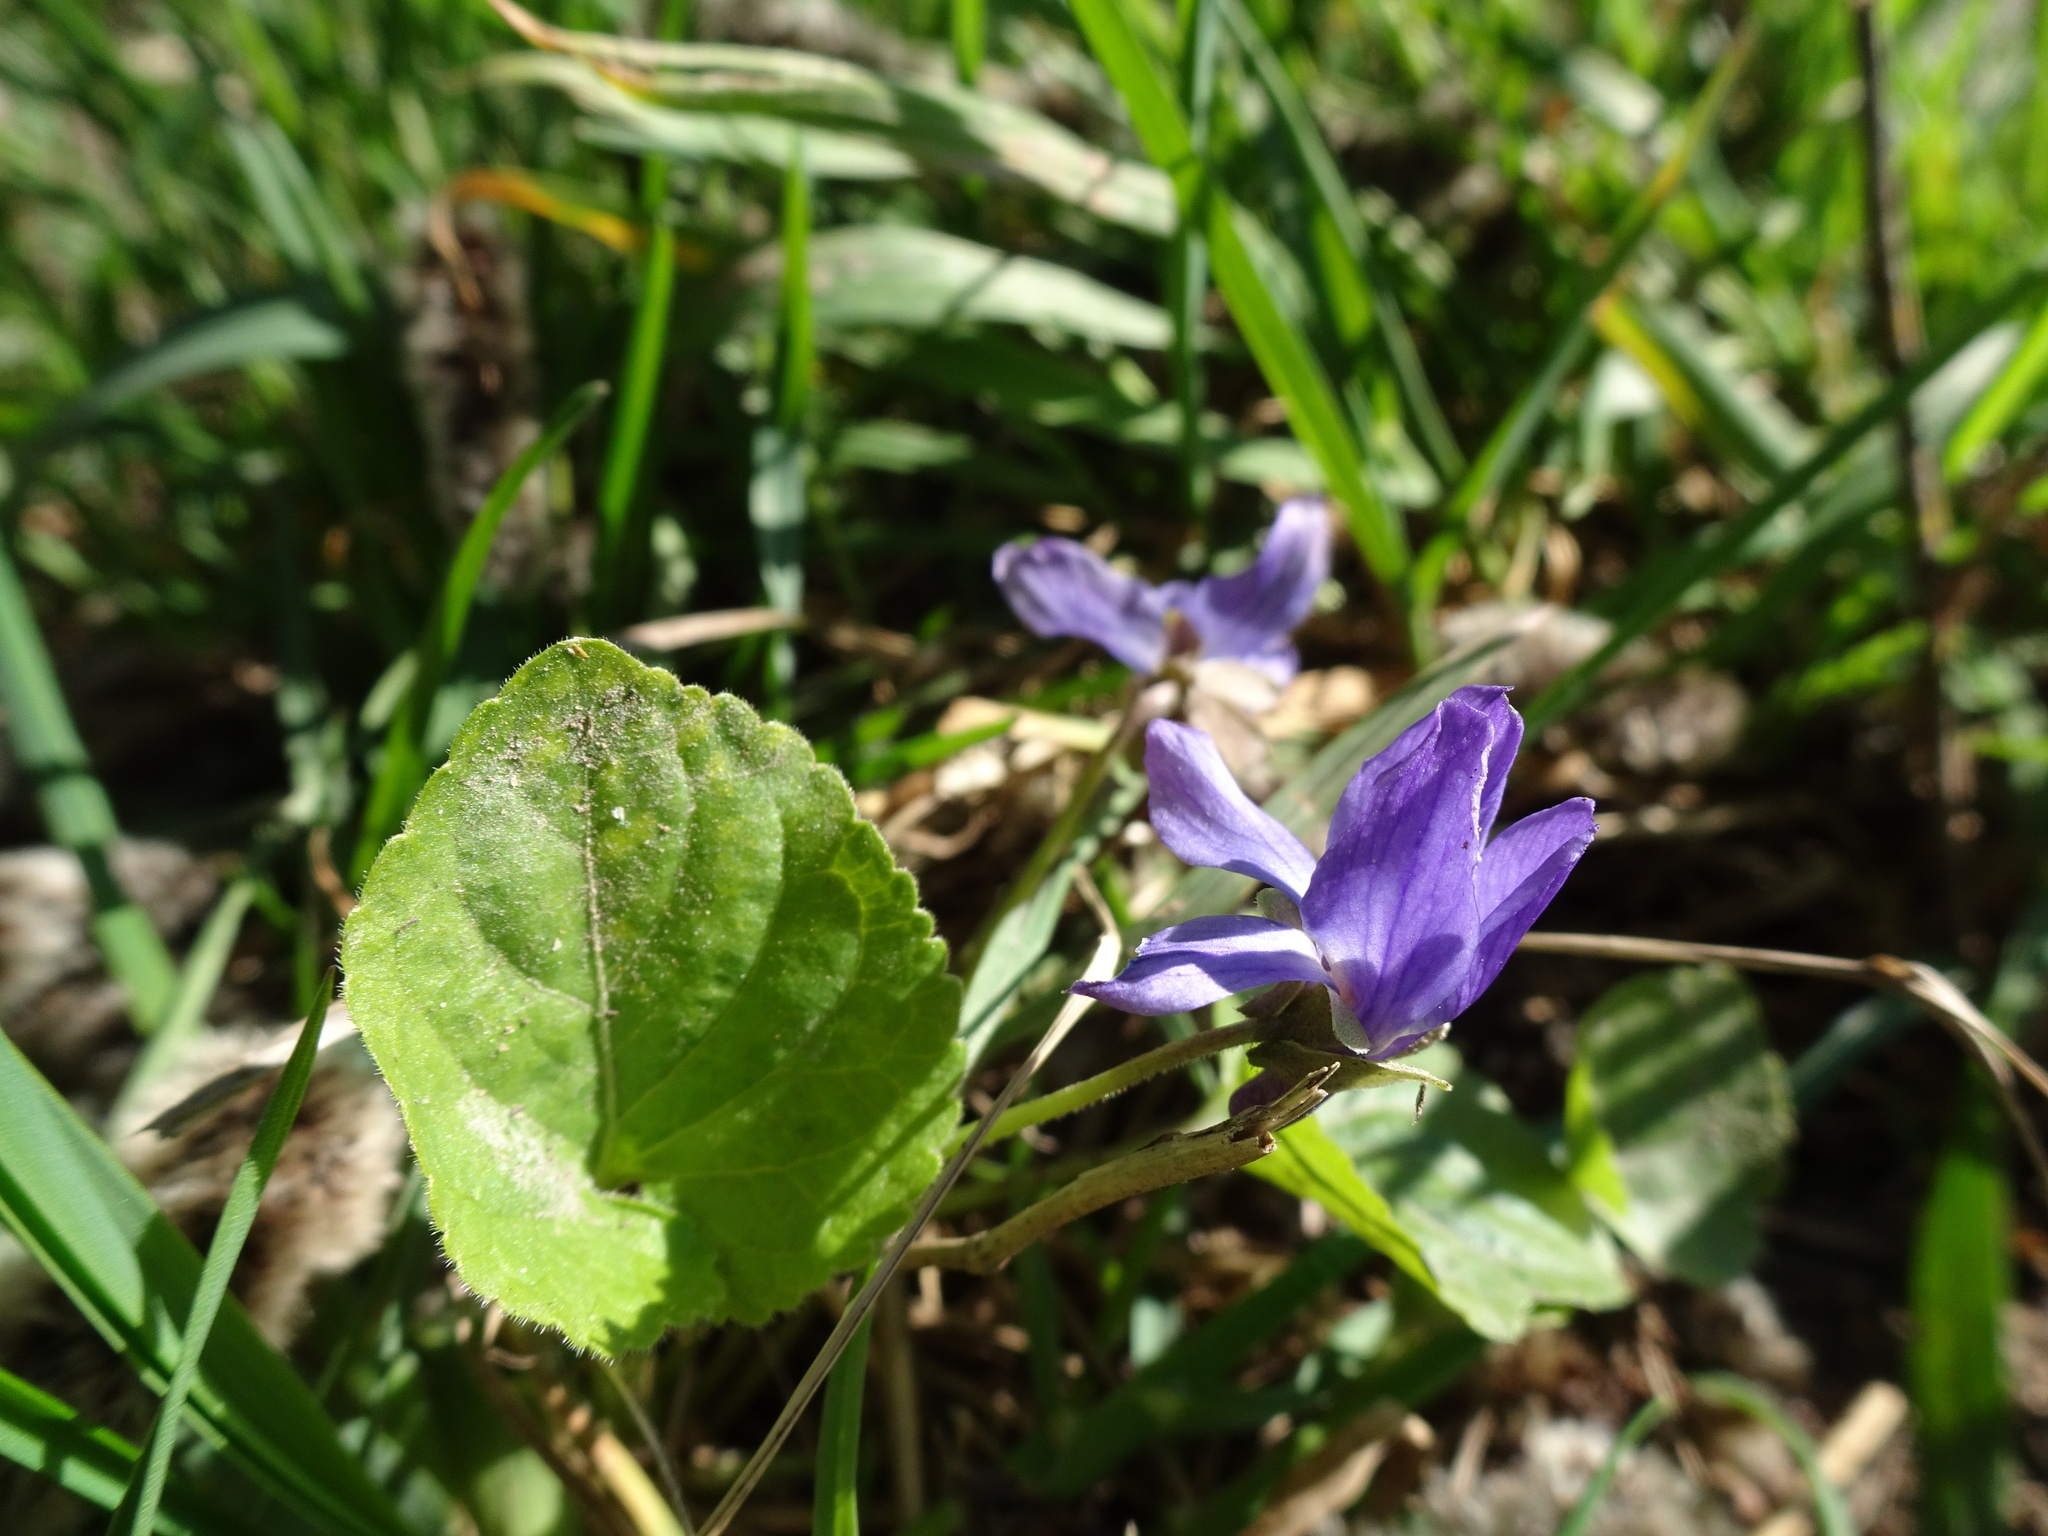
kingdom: Plantae
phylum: Tracheophyta
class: Magnoliopsida
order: Malpighiales
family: Violaceae
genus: Viola
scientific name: Viola odorata
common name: Sweet violet
